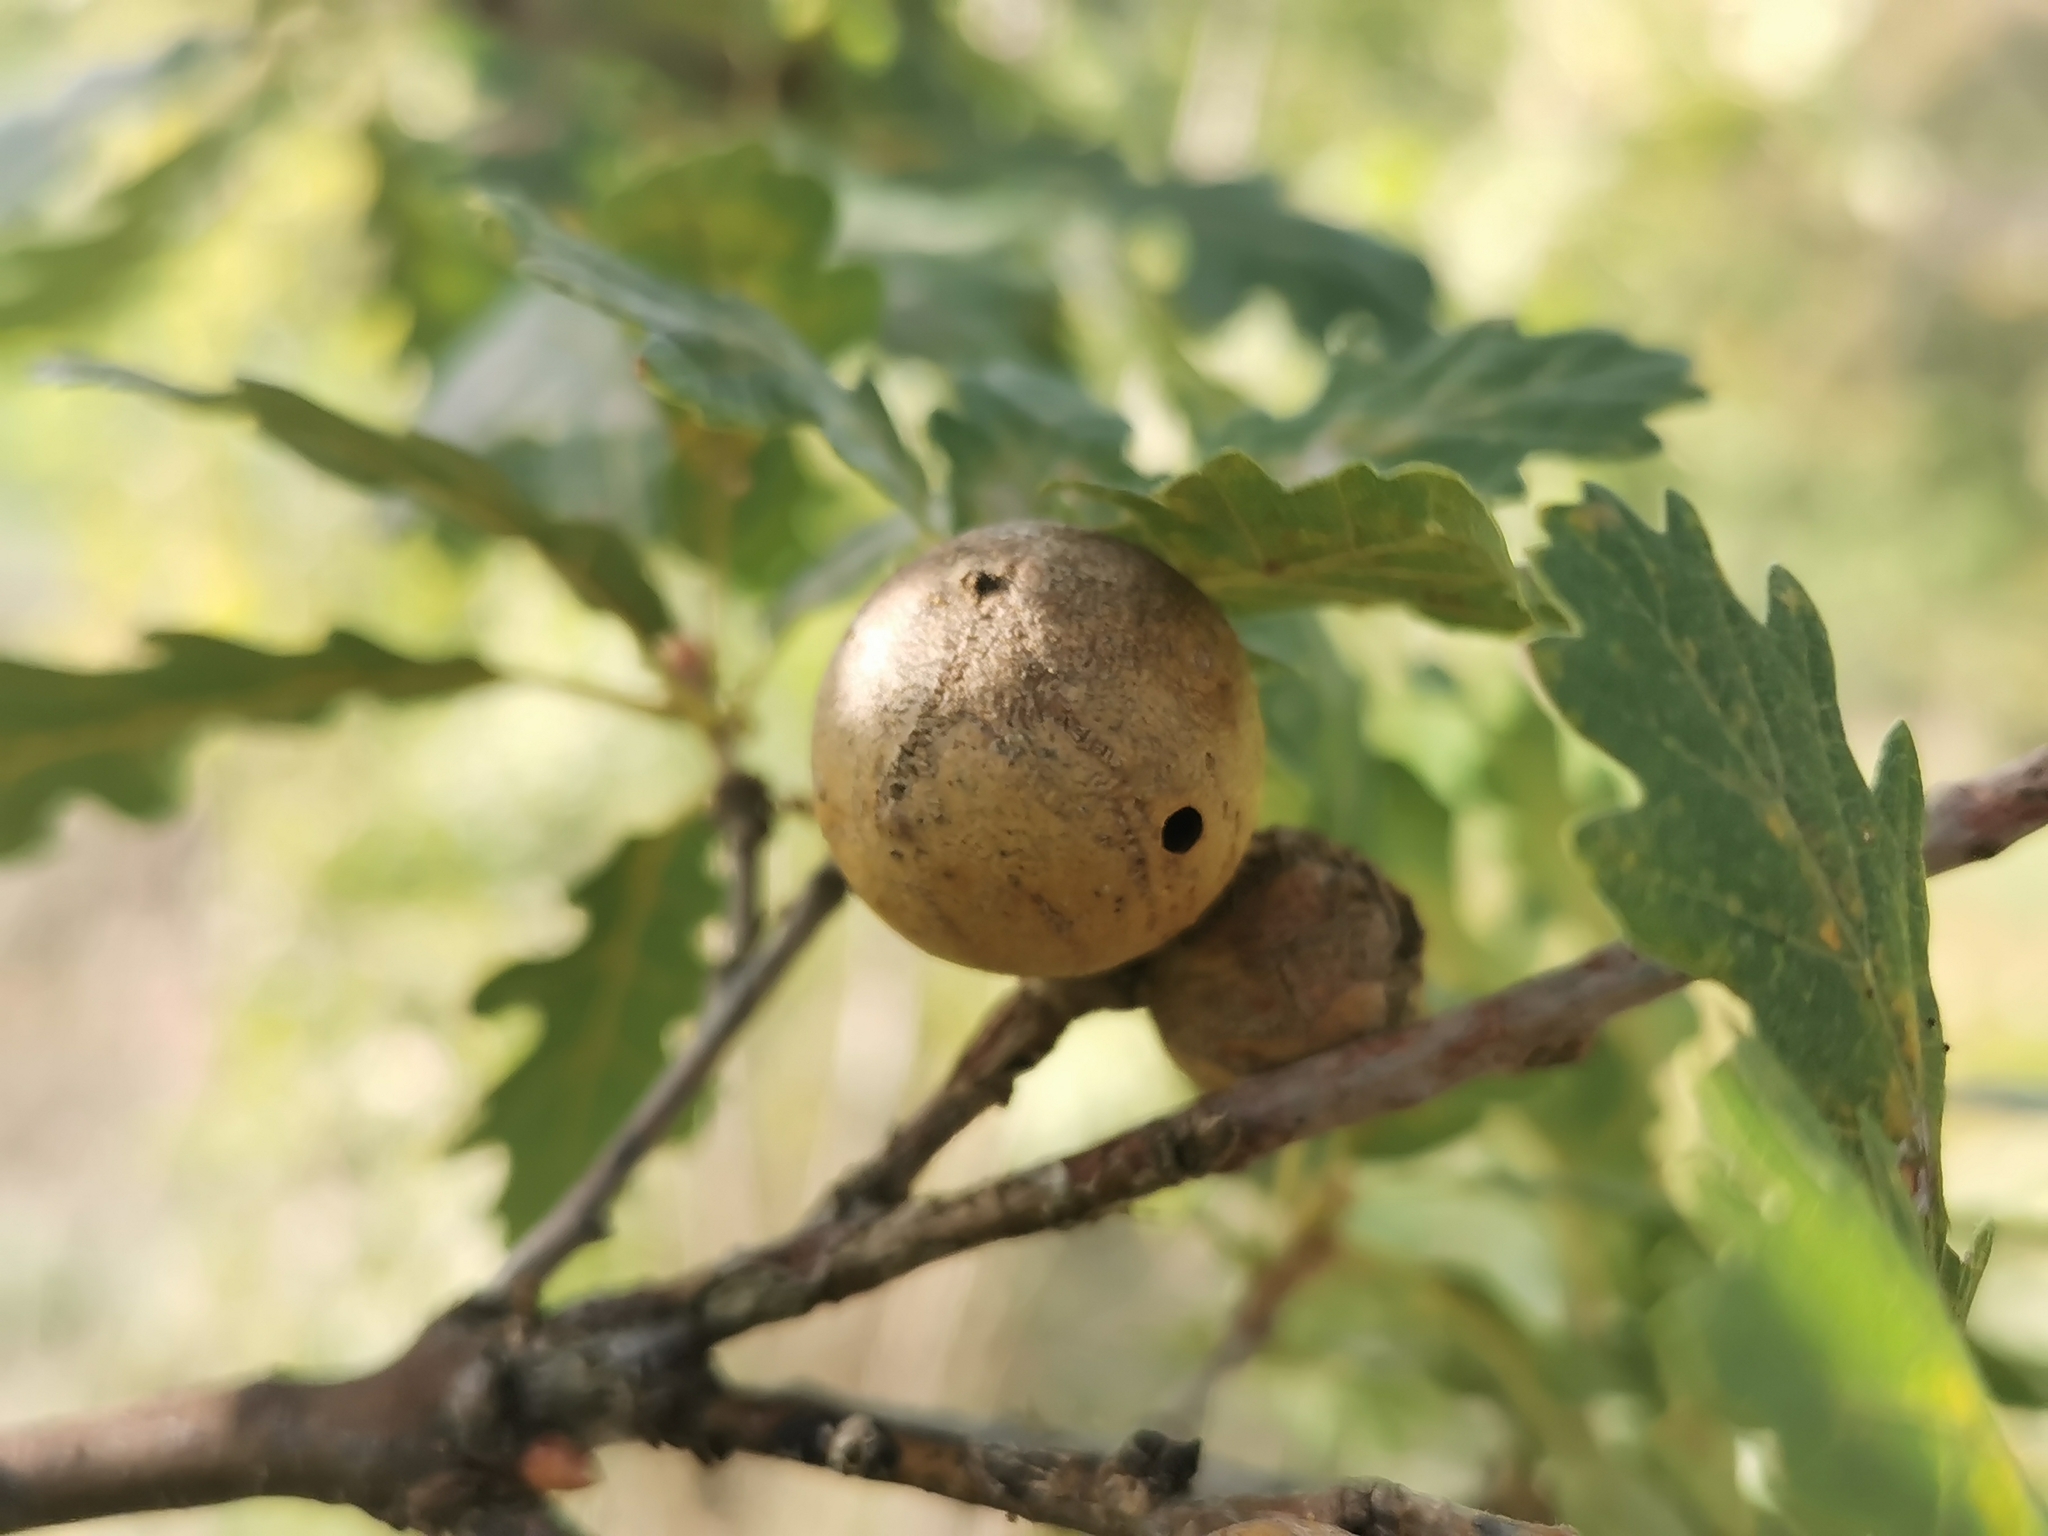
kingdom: Animalia
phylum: Arthropoda
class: Insecta
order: Hymenoptera
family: Cynipidae
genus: Andricus
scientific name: Andricus kollari
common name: Marble gall
